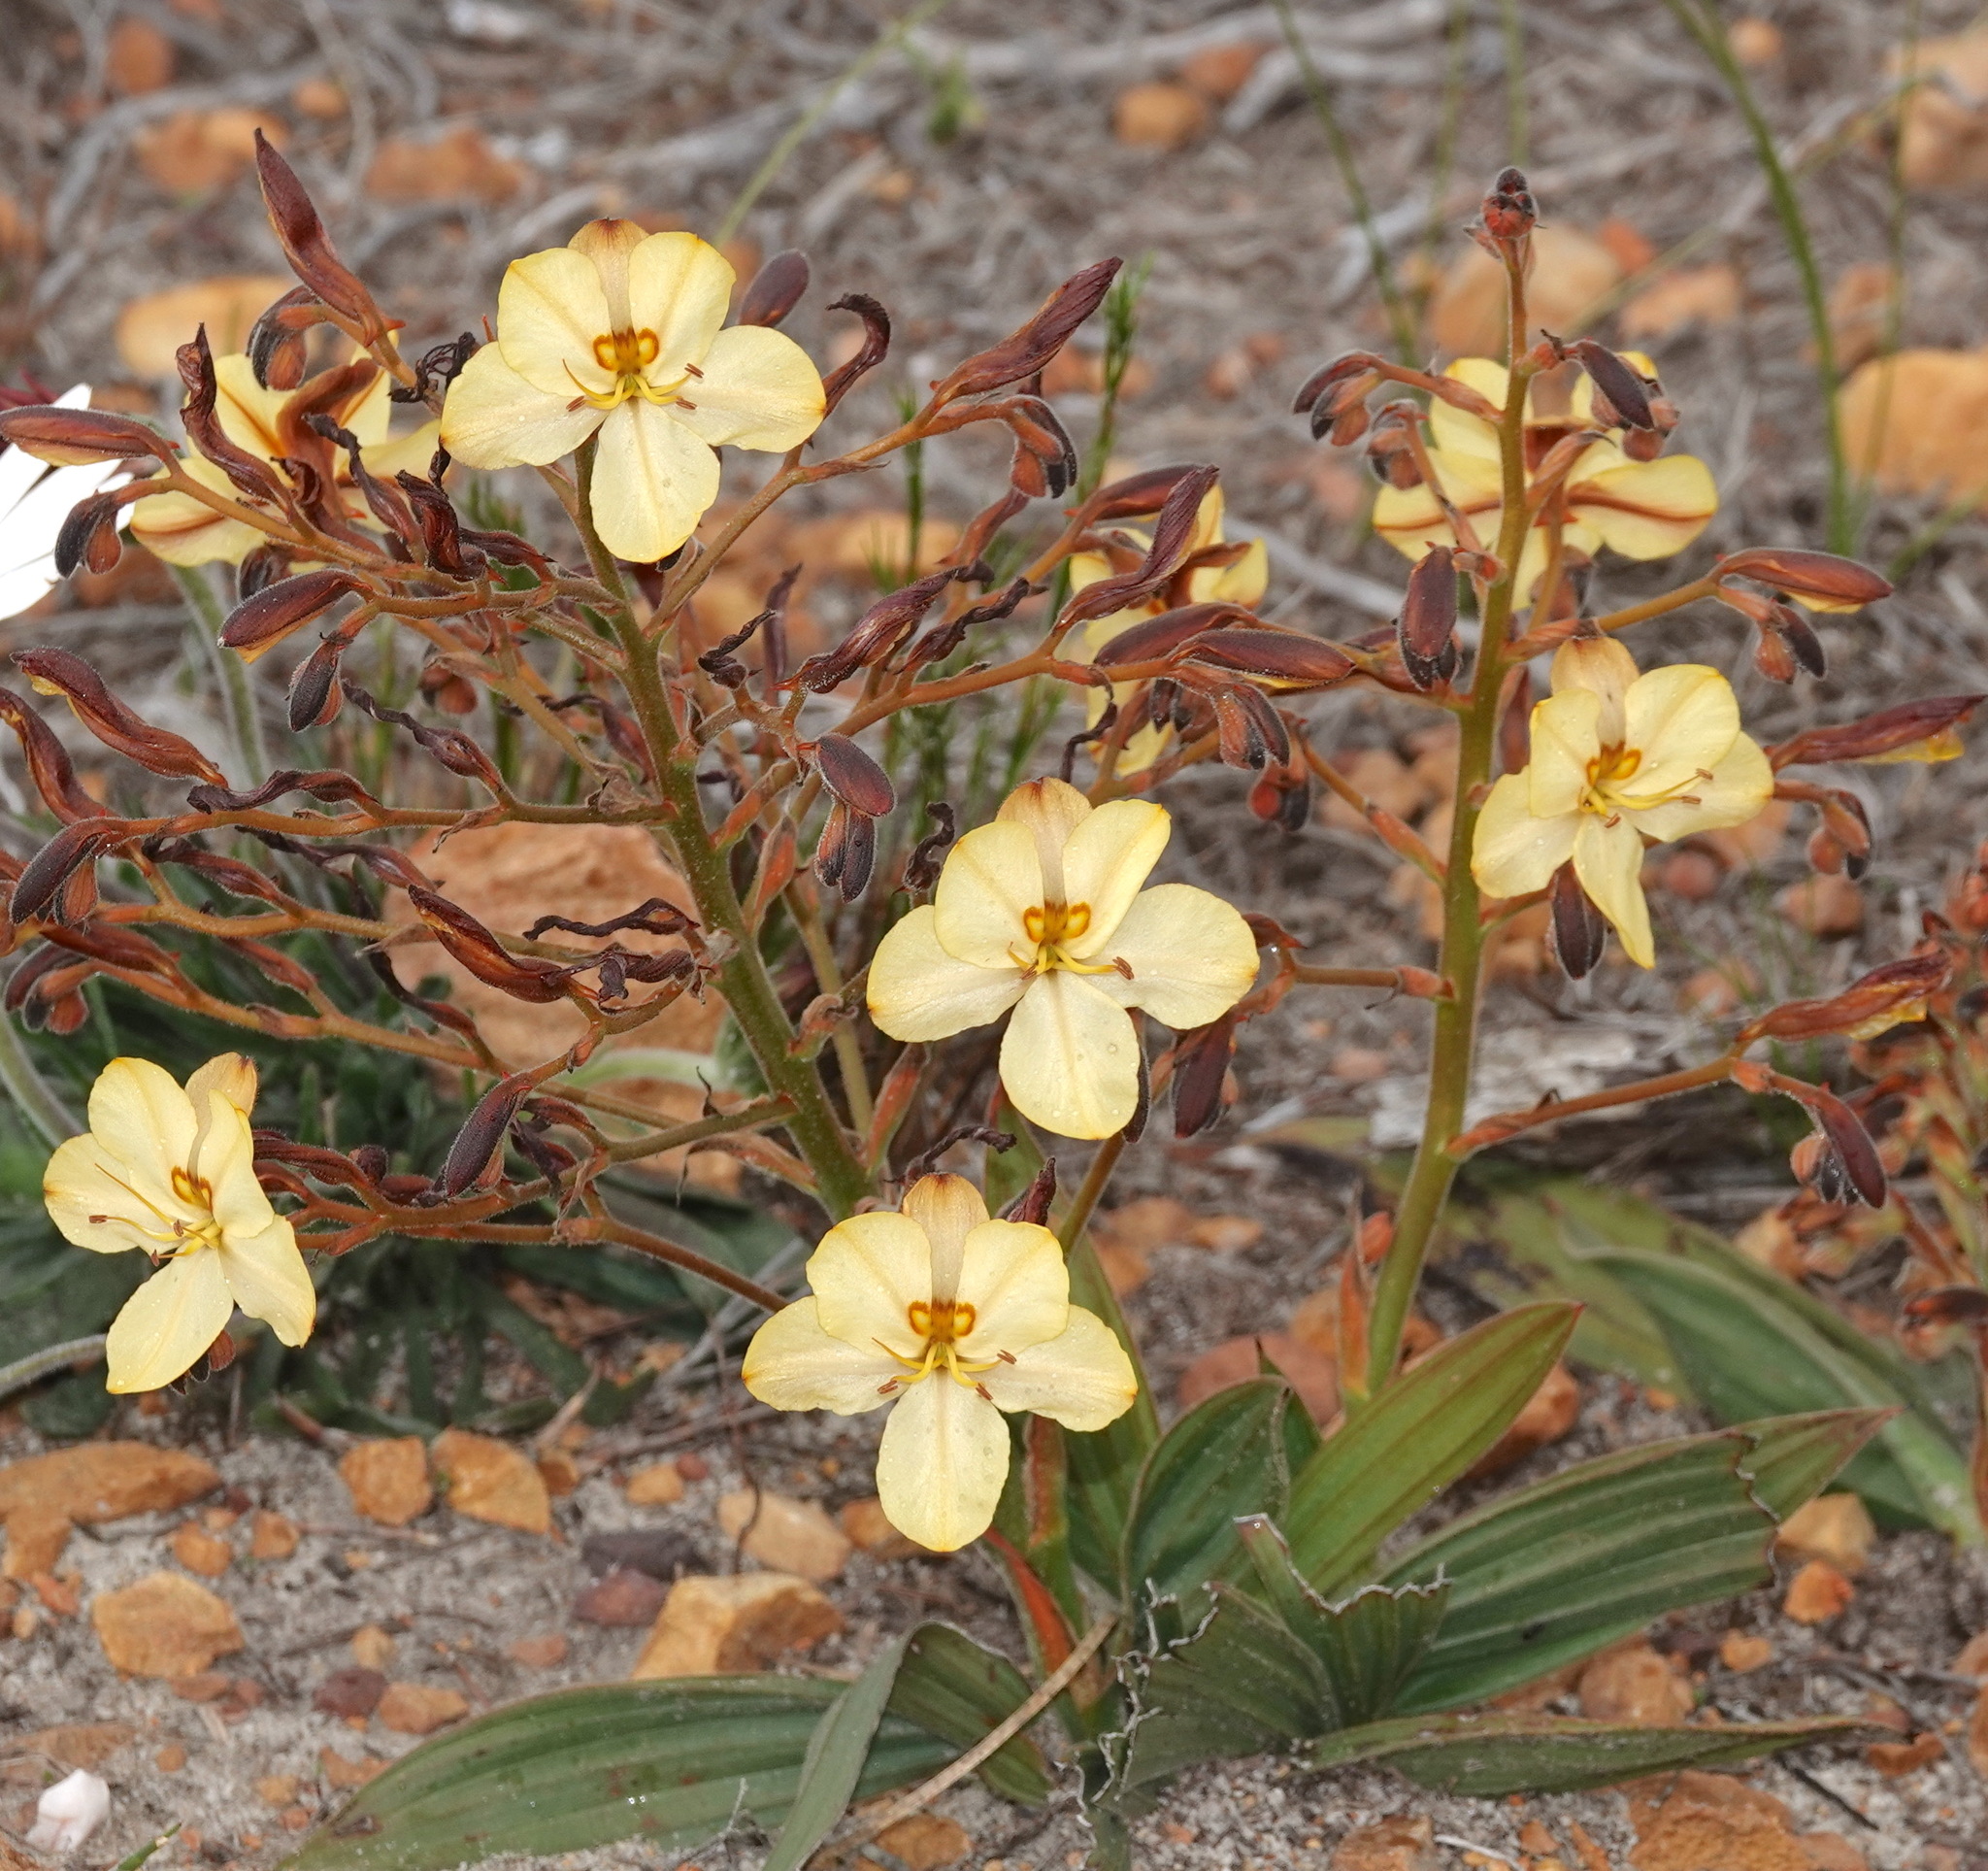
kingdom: Plantae
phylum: Tracheophyta
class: Liliopsida
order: Commelinales
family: Haemodoraceae
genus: Wachendorfia
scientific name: Wachendorfia paniculata
